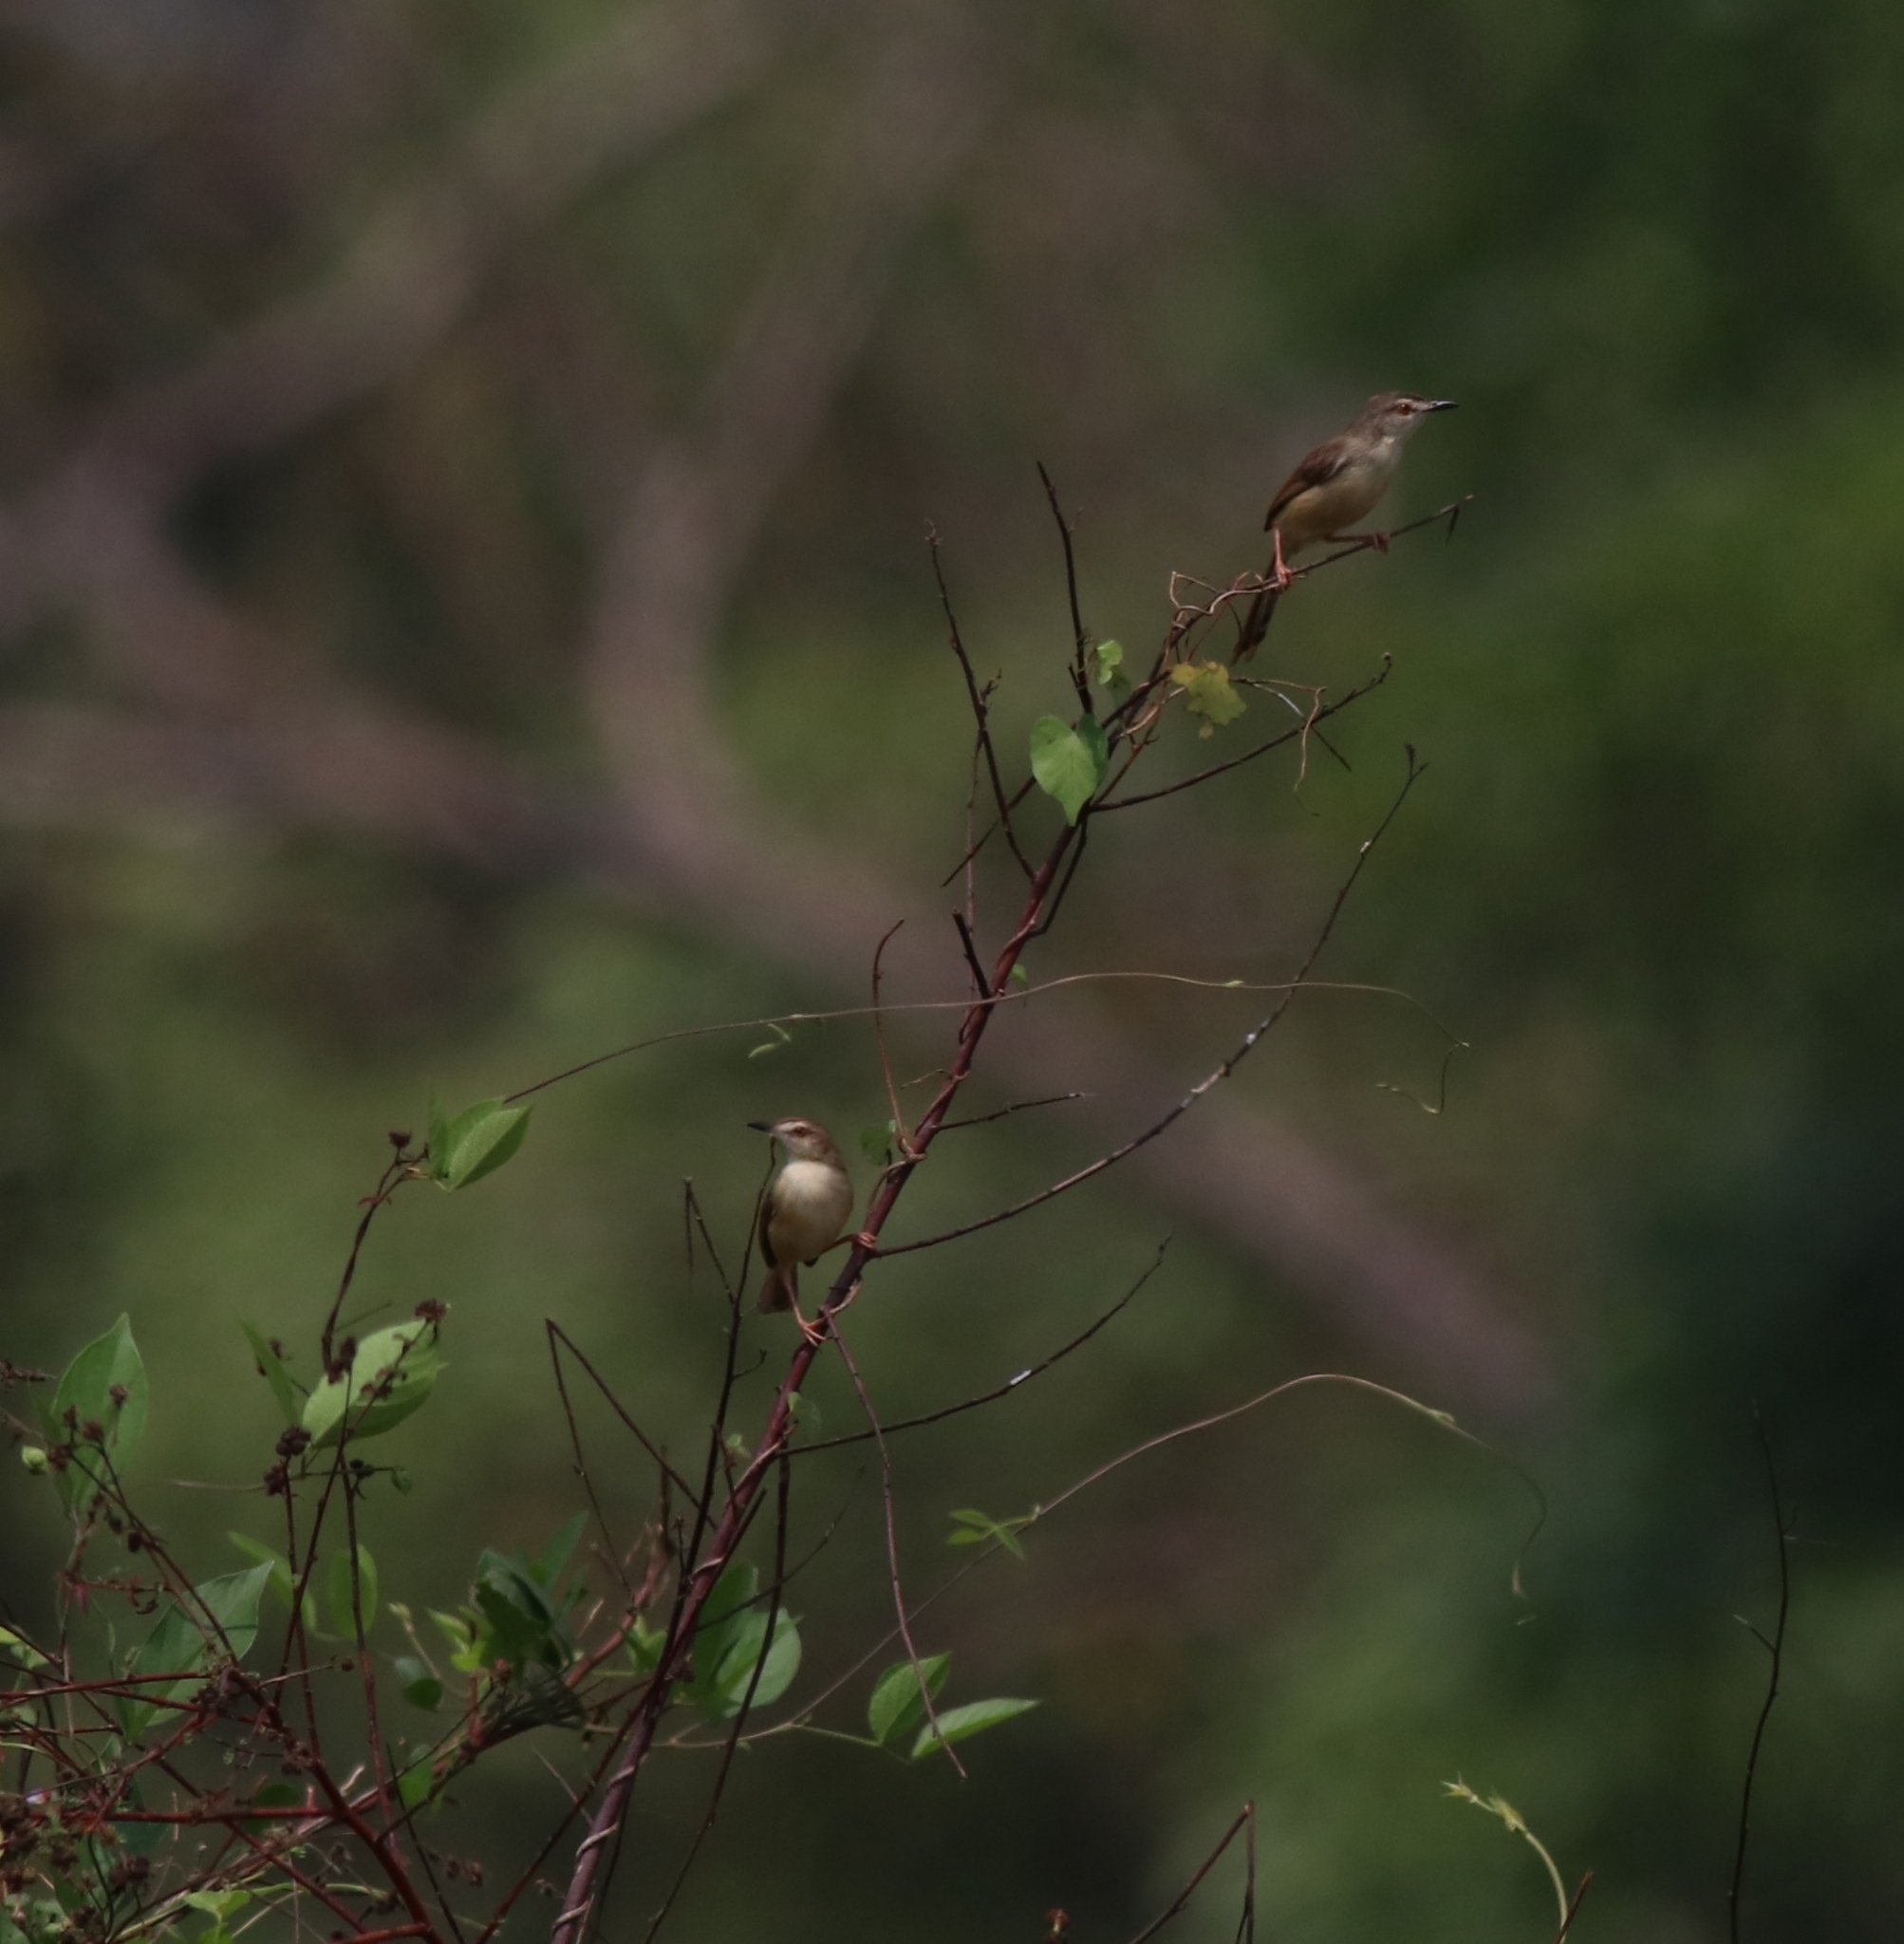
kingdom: Animalia
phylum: Chordata
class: Aves
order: Passeriformes
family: Cisticolidae
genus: Prinia
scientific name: Prinia inornata
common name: Plain prinia
